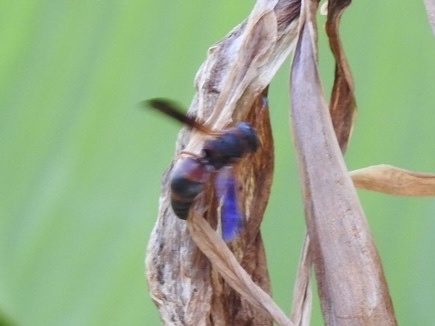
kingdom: Animalia
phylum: Arthropoda
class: Insecta
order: Hymenoptera
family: Eumenidae
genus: Pachodynerus
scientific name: Pachodynerus erynnis
